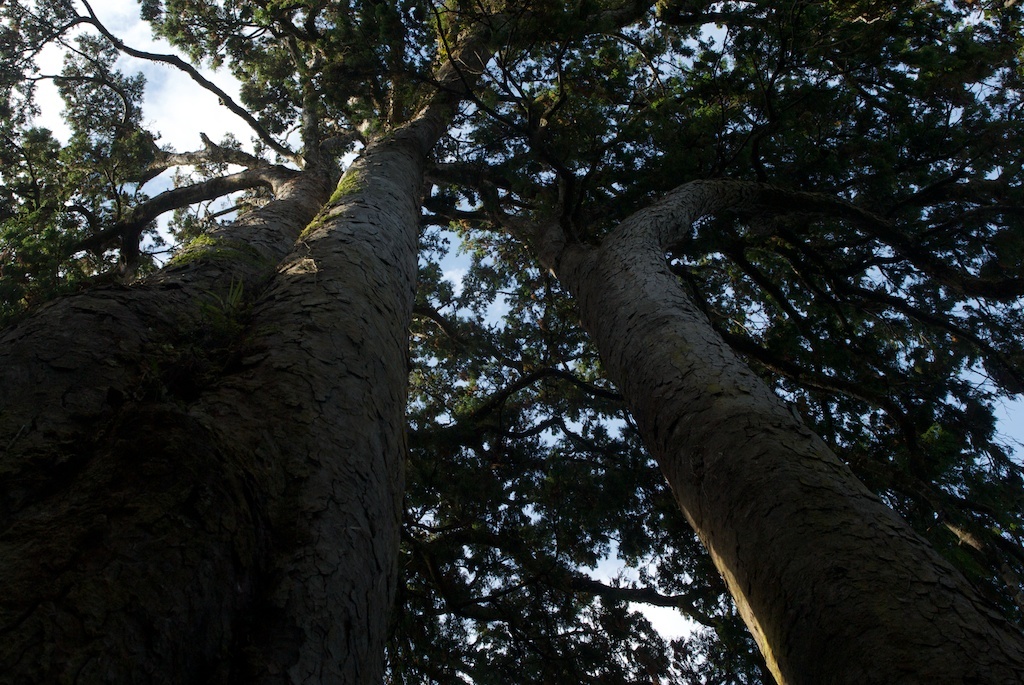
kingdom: Plantae
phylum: Tracheophyta
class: Pinopsida
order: Pinales
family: Podocarpaceae
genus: Dacrydium
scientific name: Dacrydium cupressinum
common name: Red pine
